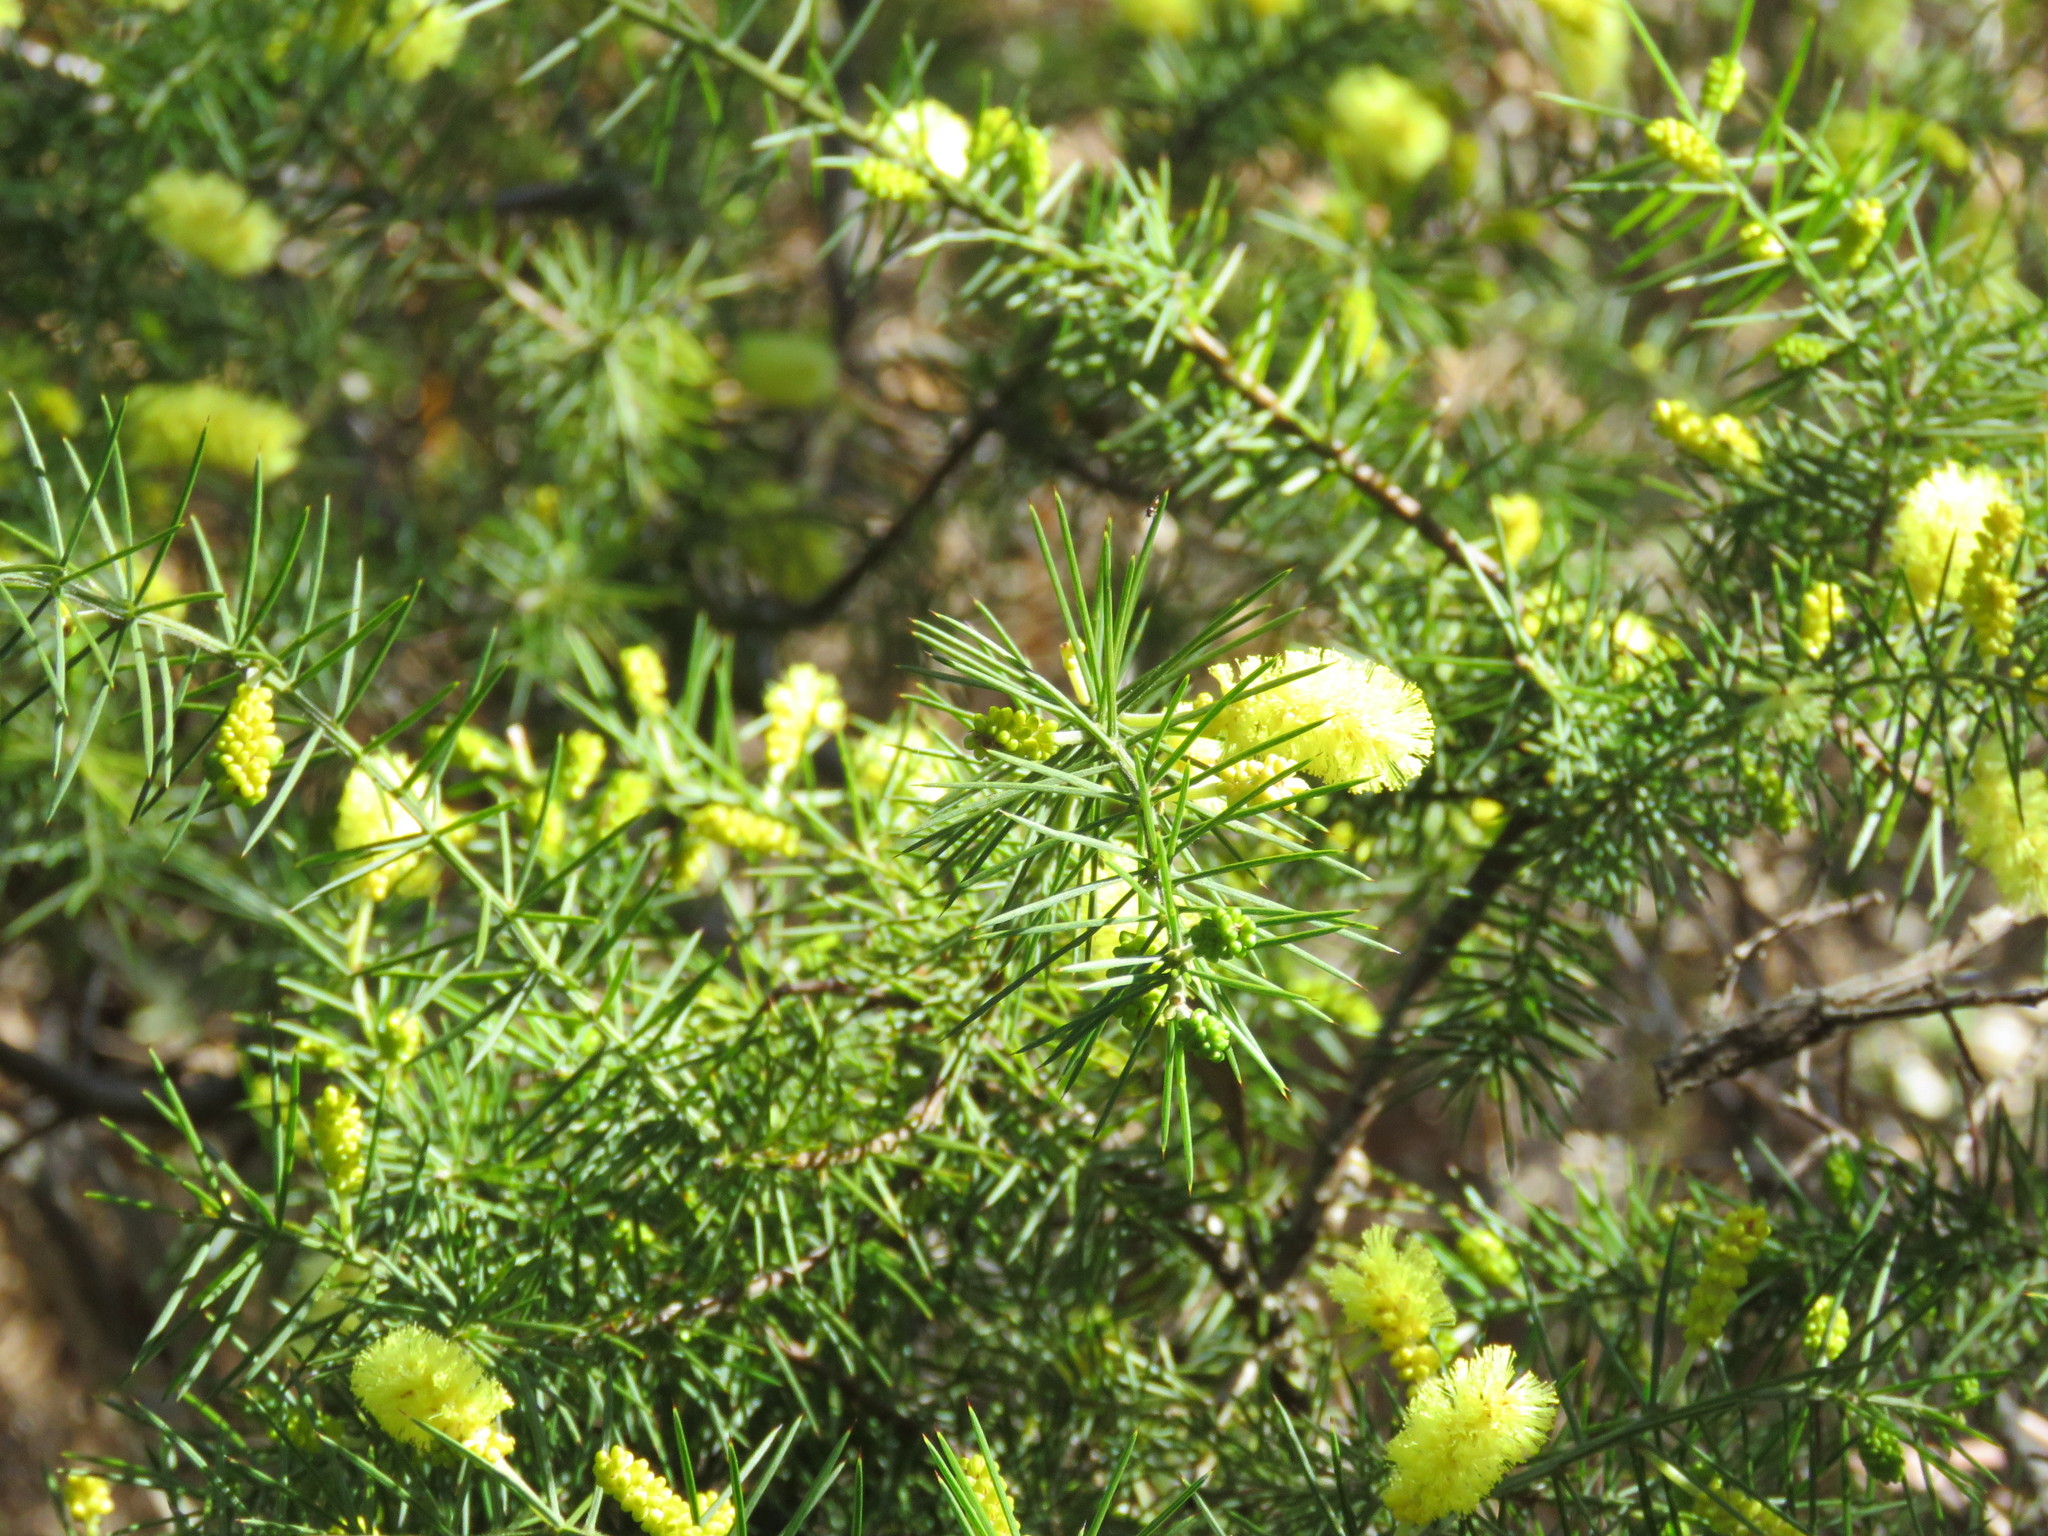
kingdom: Plantae
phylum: Tracheophyta
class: Magnoliopsida
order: Fabales
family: Fabaceae
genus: Acacia
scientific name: Acacia verticillata
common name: Prickly moses
